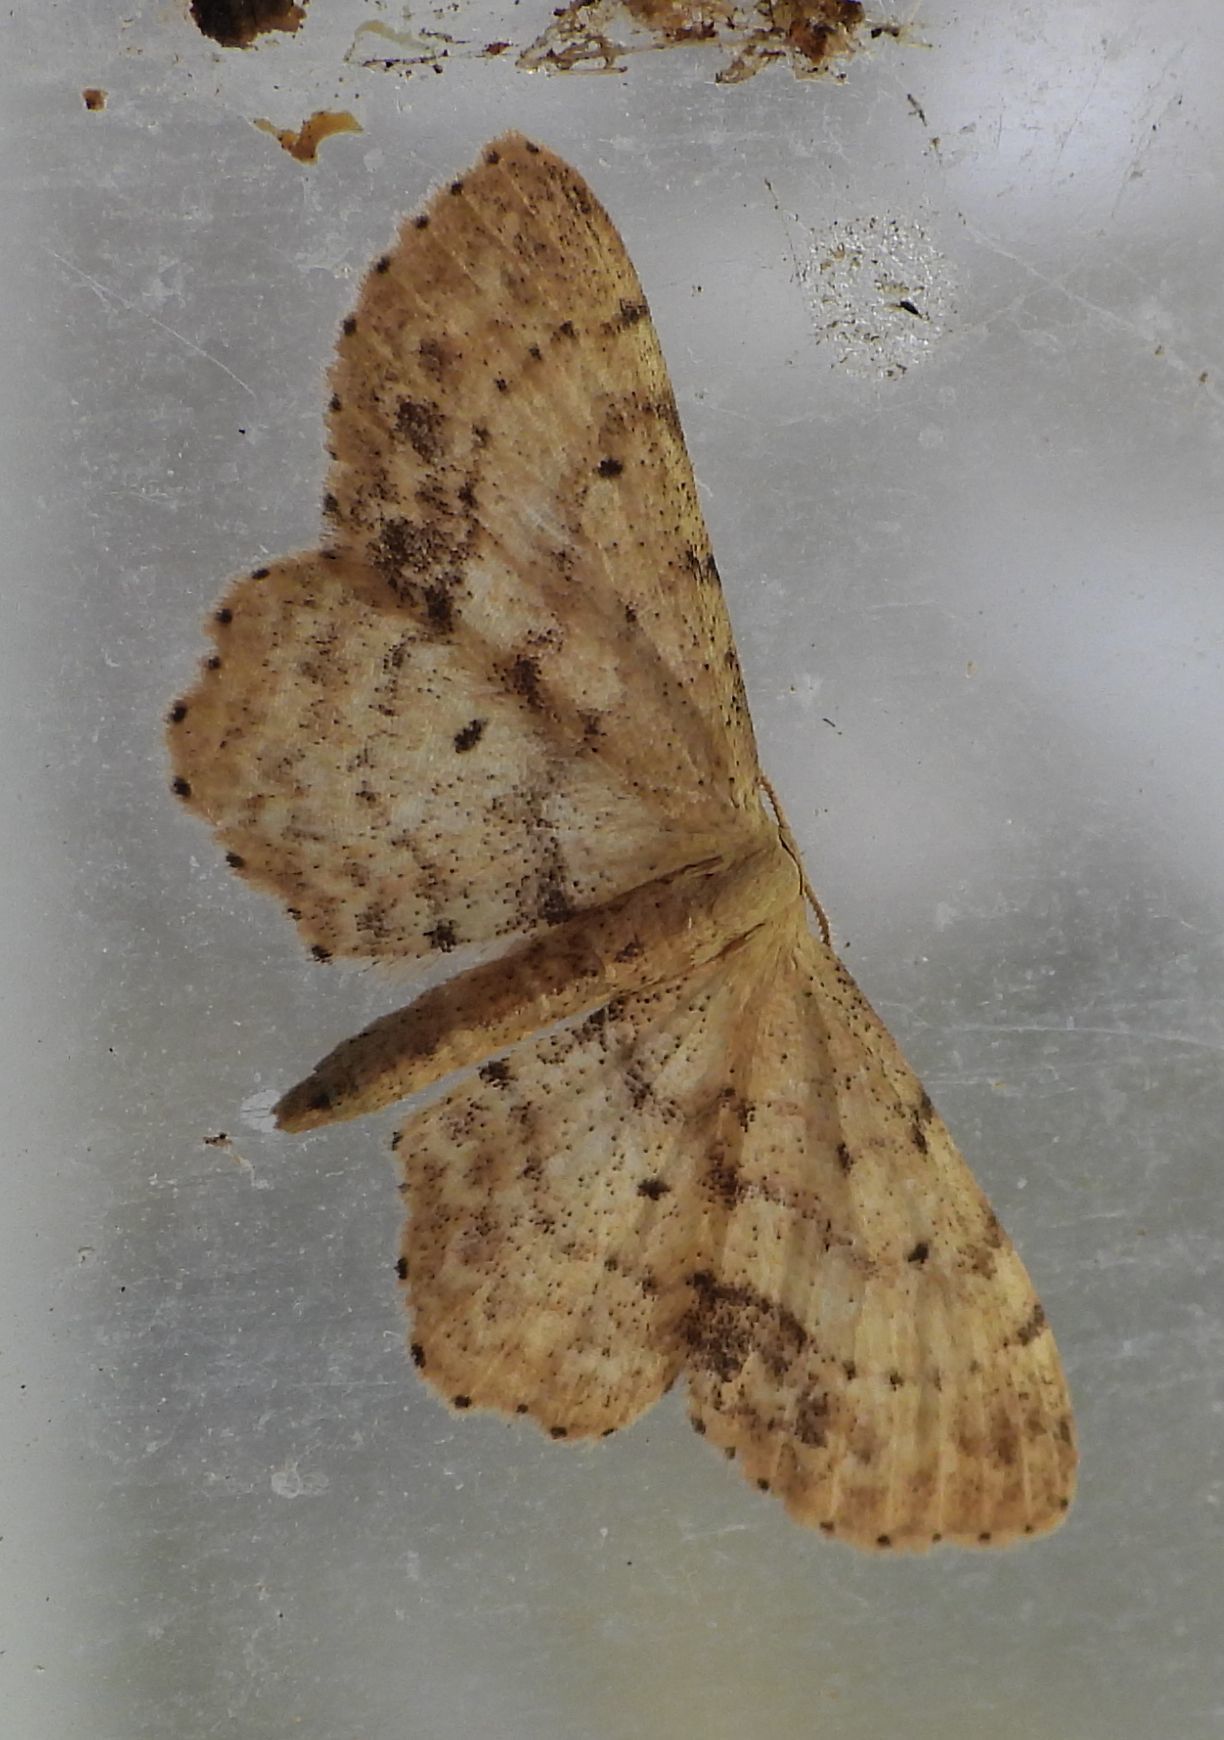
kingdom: Animalia
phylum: Arthropoda
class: Insecta
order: Lepidoptera
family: Geometridae
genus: Idaea
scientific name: Idaea dimidiata
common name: Single-dotted wave
